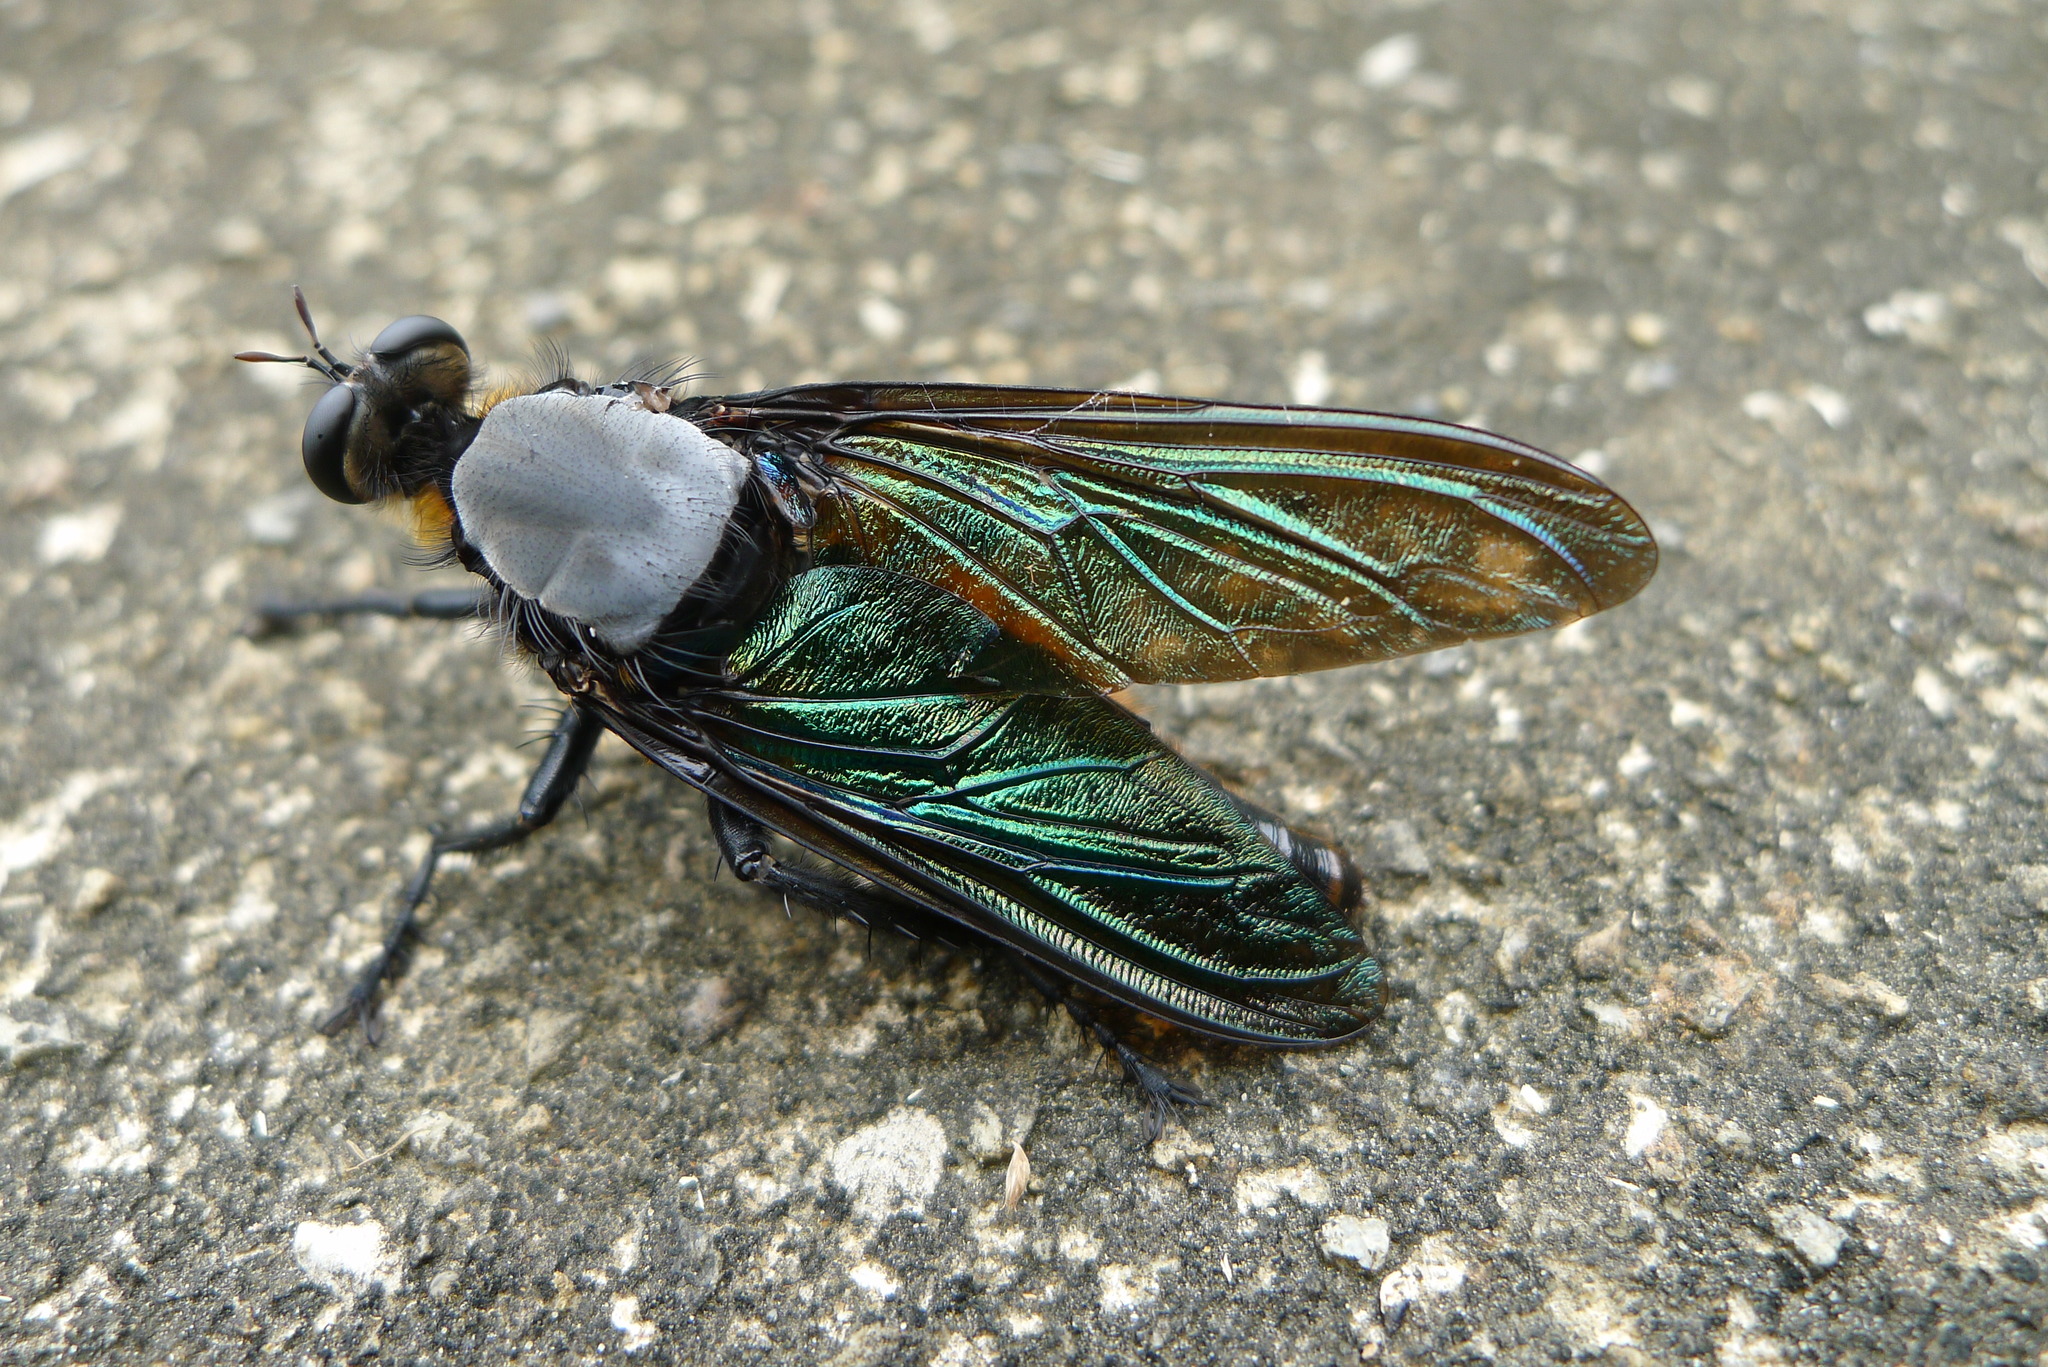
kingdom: Animalia
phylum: Arthropoda
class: Insecta
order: Diptera
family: Asilidae
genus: Microstylum
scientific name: Microstylum oberthurii
